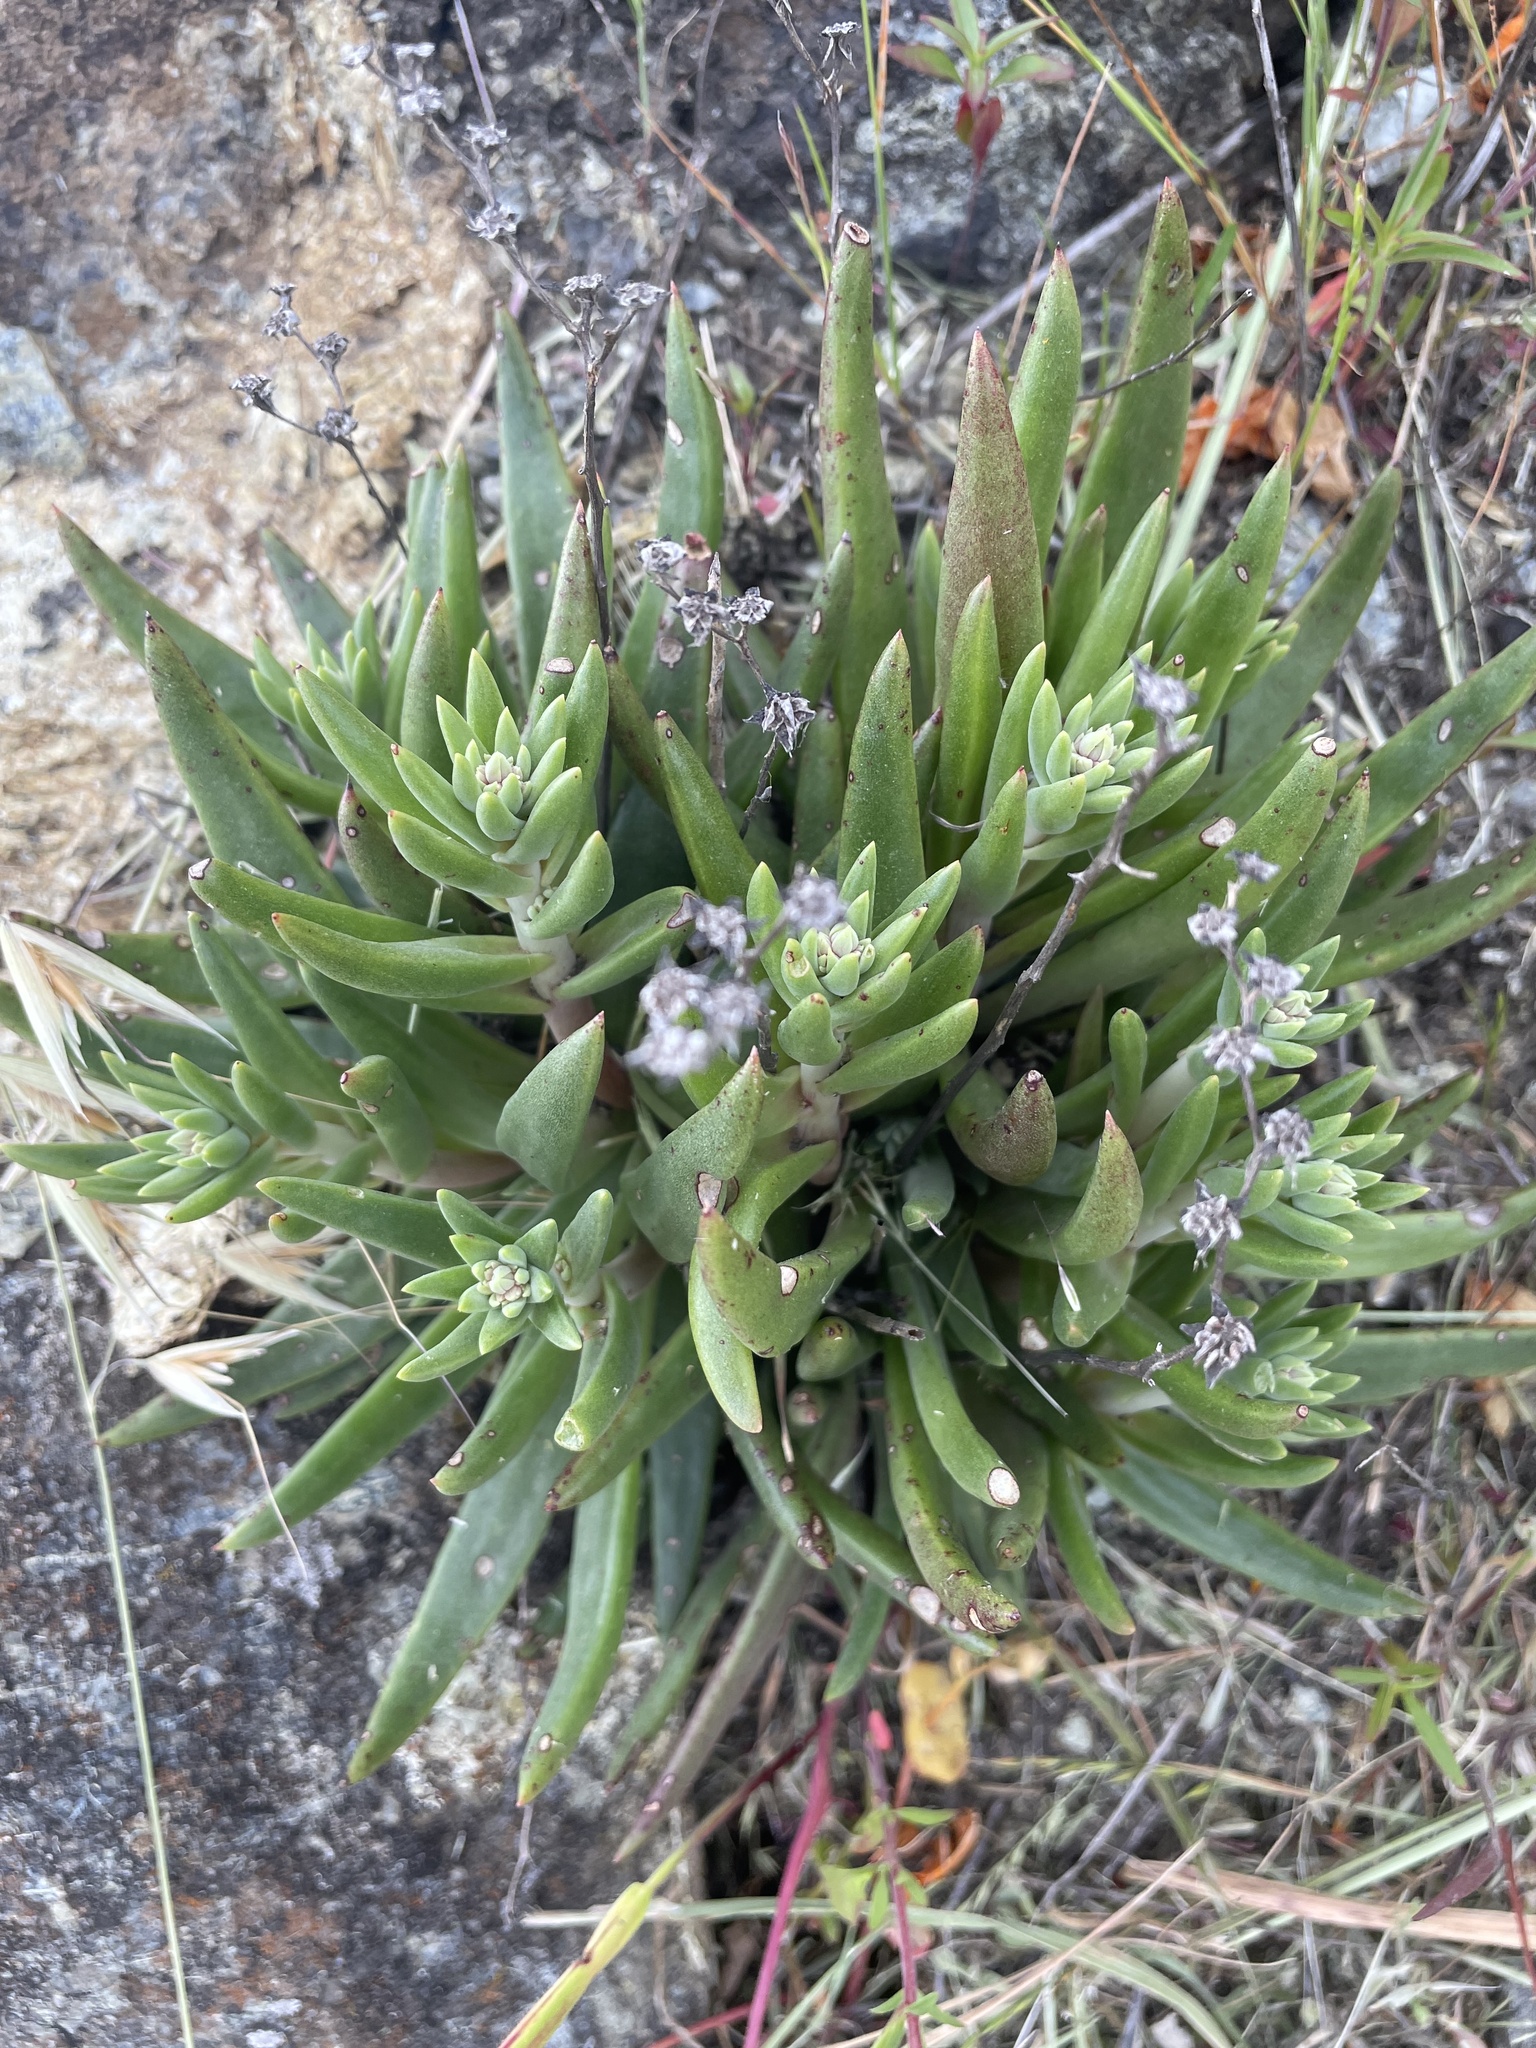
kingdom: Plantae
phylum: Tracheophyta
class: Magnoliopsida
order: Saxifragales
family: Crassulaceae
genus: Dudleya
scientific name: Dudleya abramsii
